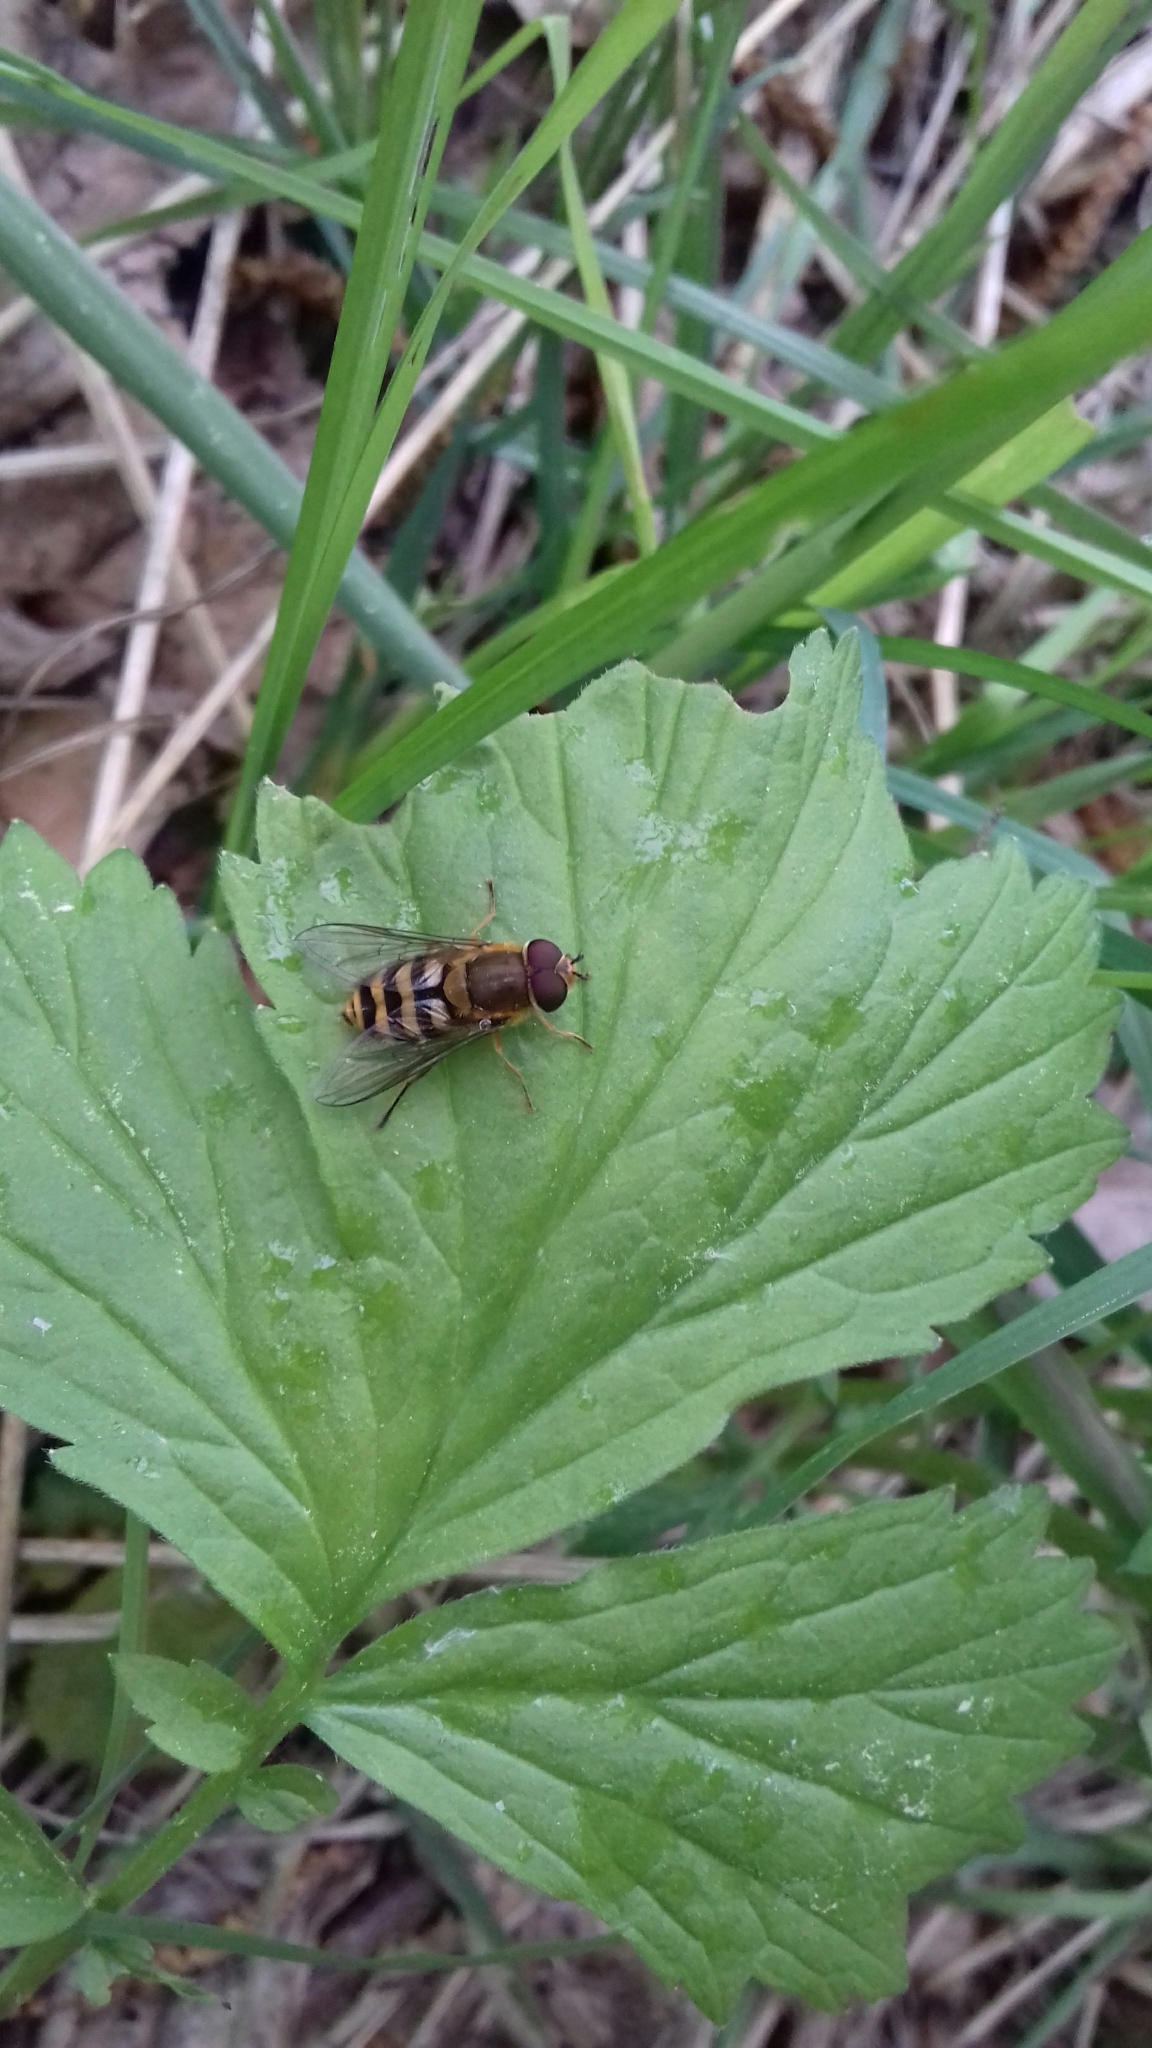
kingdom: Animalia
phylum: Arthropoda
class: Insecta
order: Diptera
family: Syrphidae
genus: Syrphus
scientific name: Syrphus
